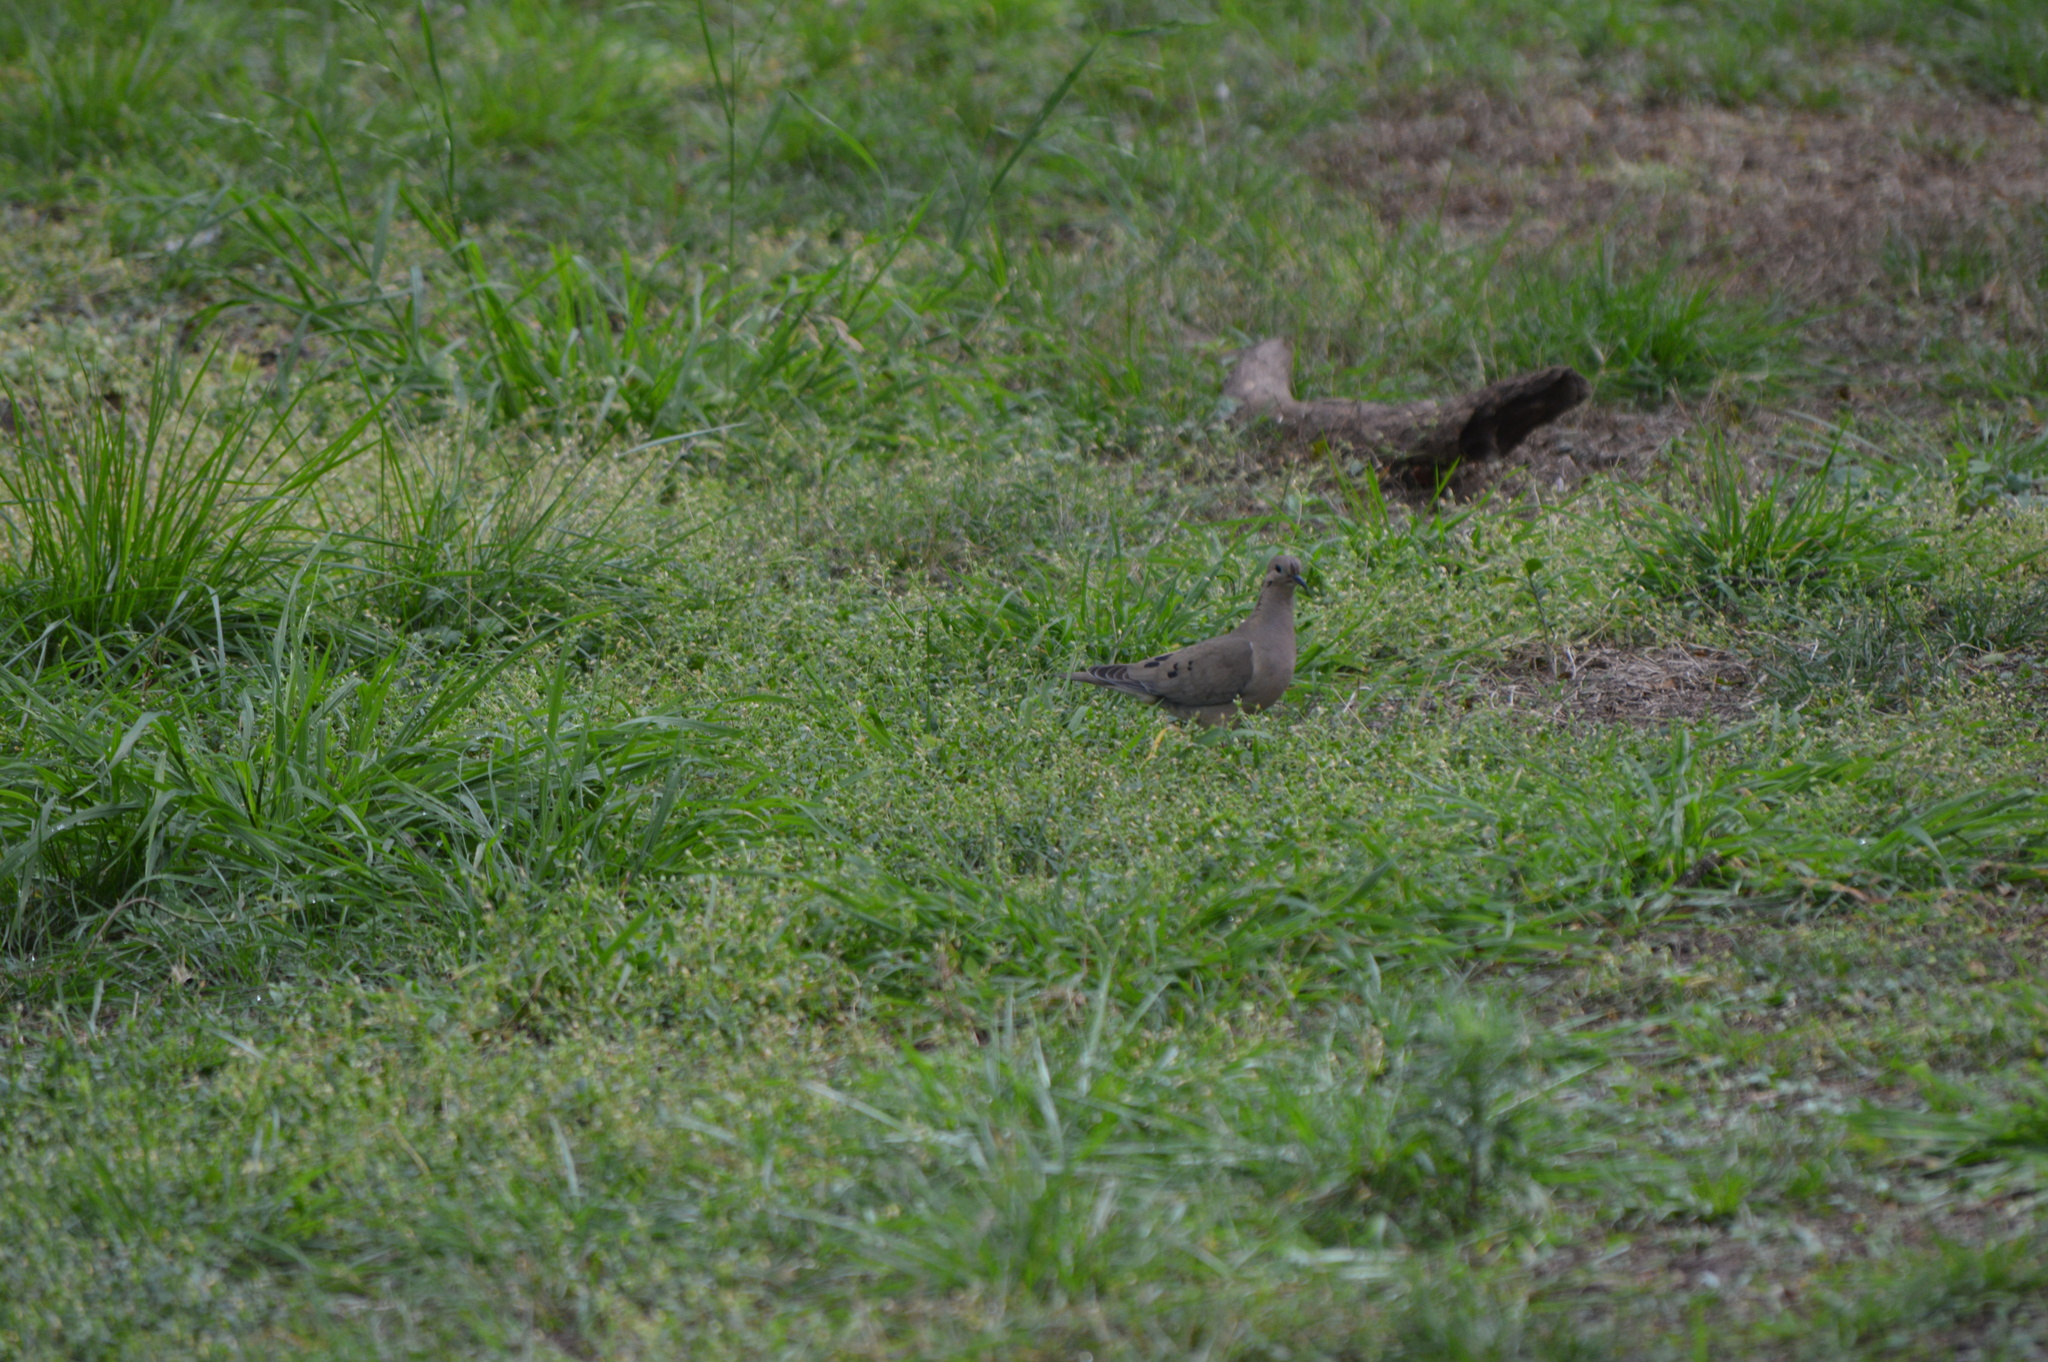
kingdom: Animalia
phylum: Chordata
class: Aves
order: Columbiformes
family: Columbidae
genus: Zenaida
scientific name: Zenaida auriculata
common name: Eared dove
